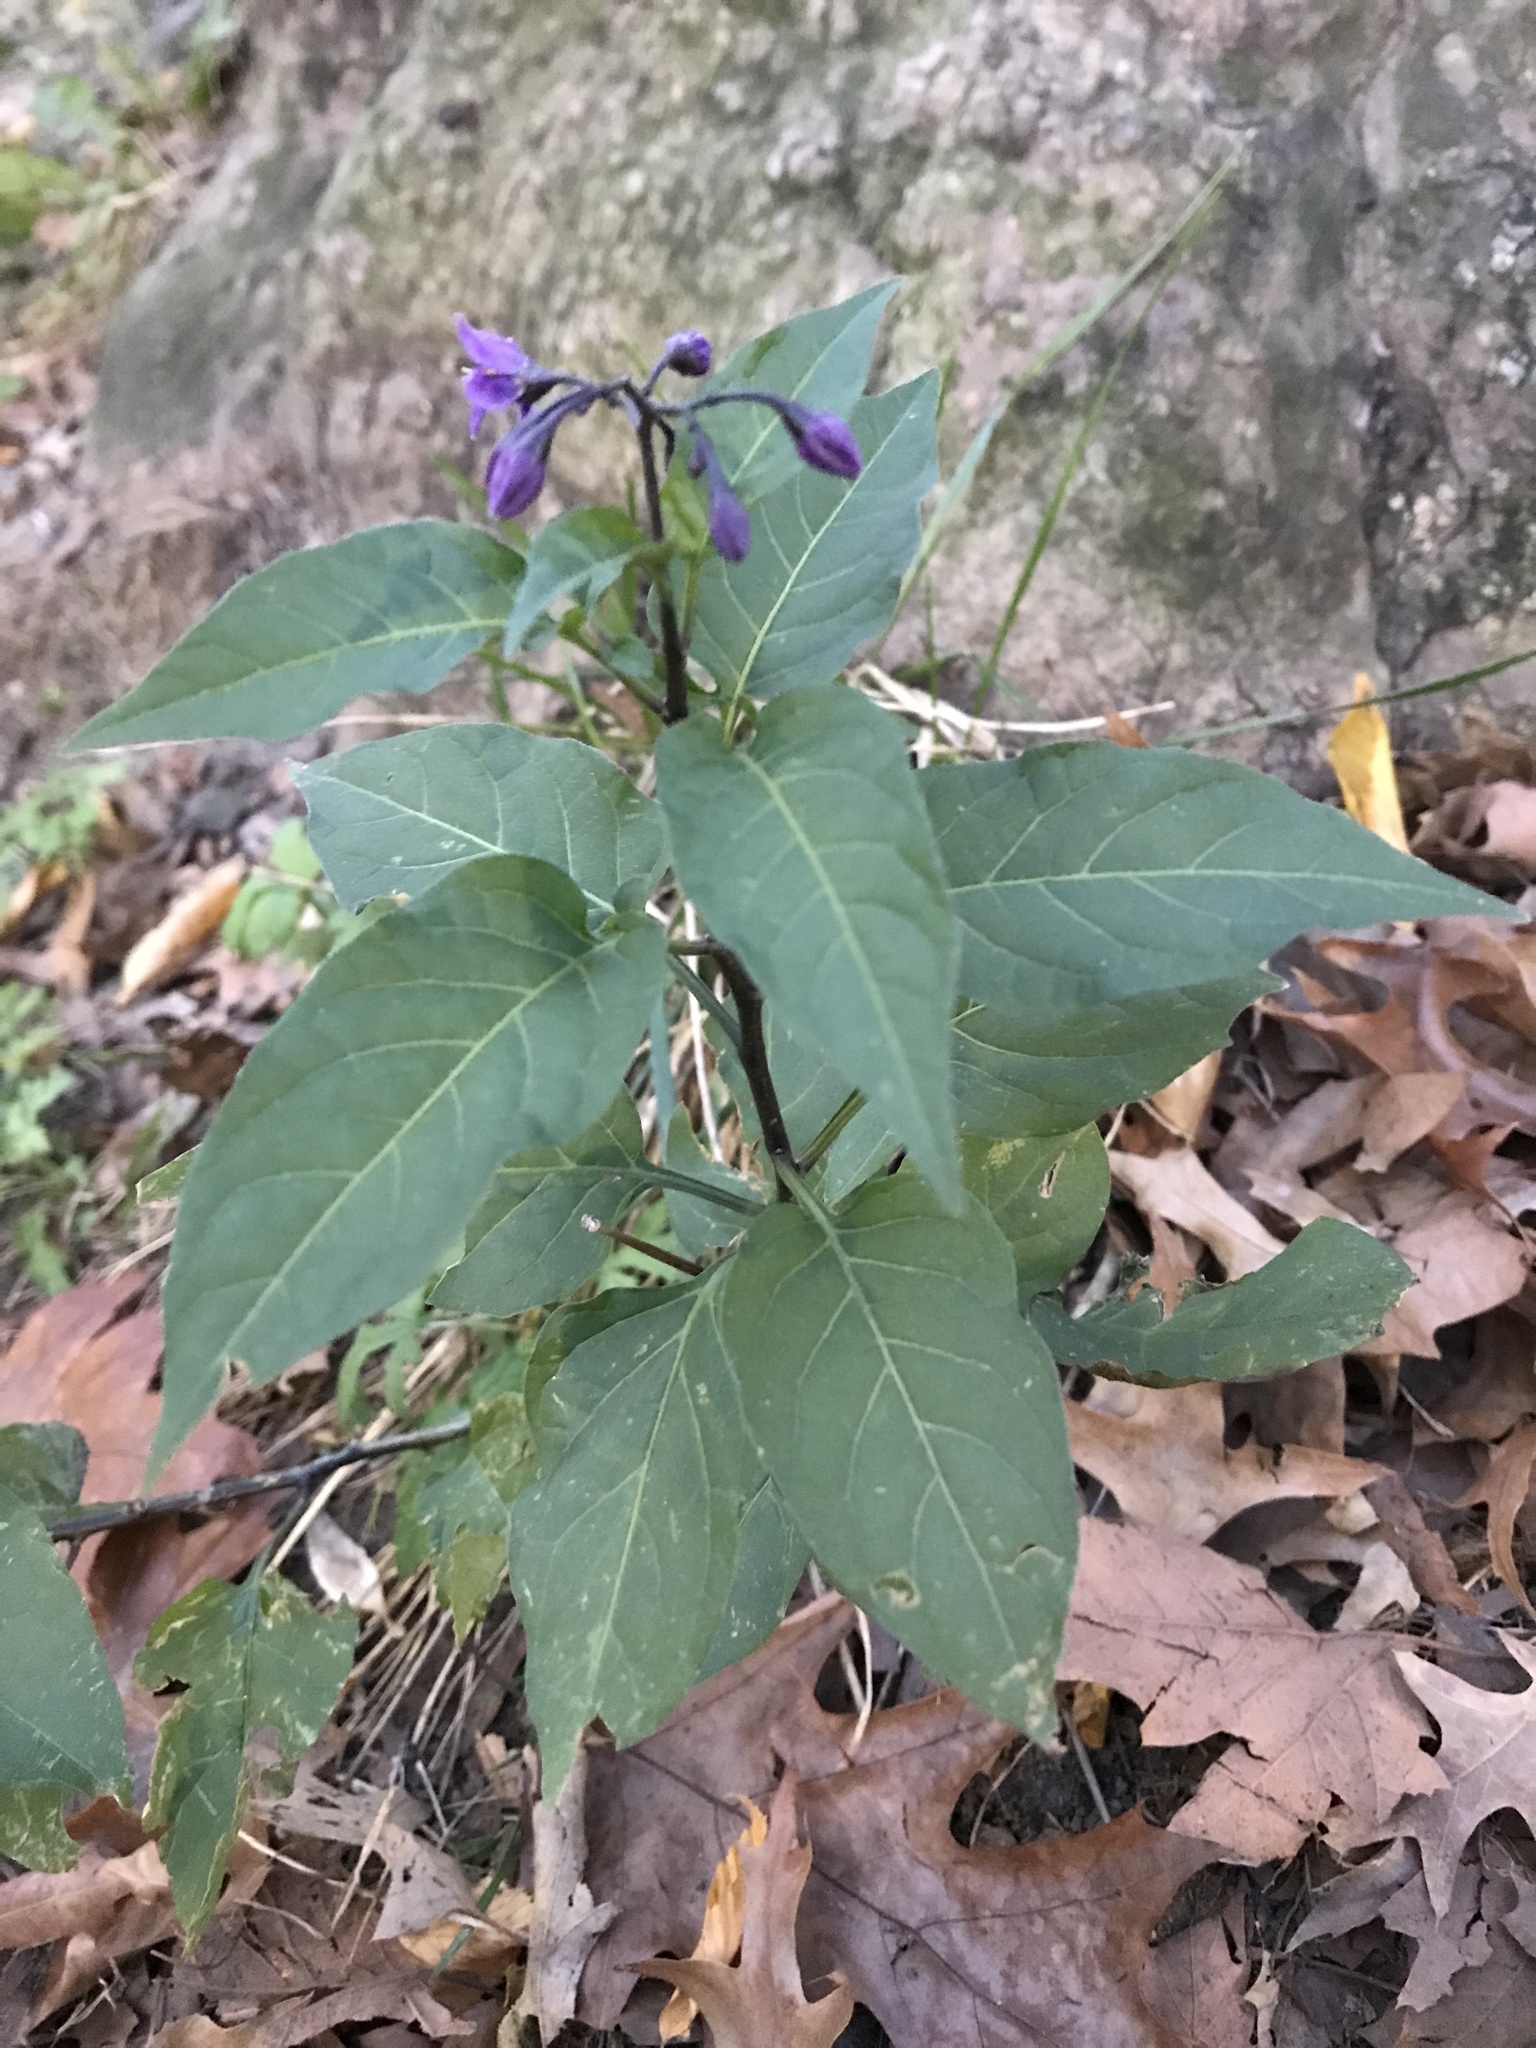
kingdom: Plantae
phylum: Tracheophyta
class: Magnoliopsida
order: Solanales
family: Solanaceae
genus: Solanum
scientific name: Solanum dulcamara
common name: Climbing nightshade
